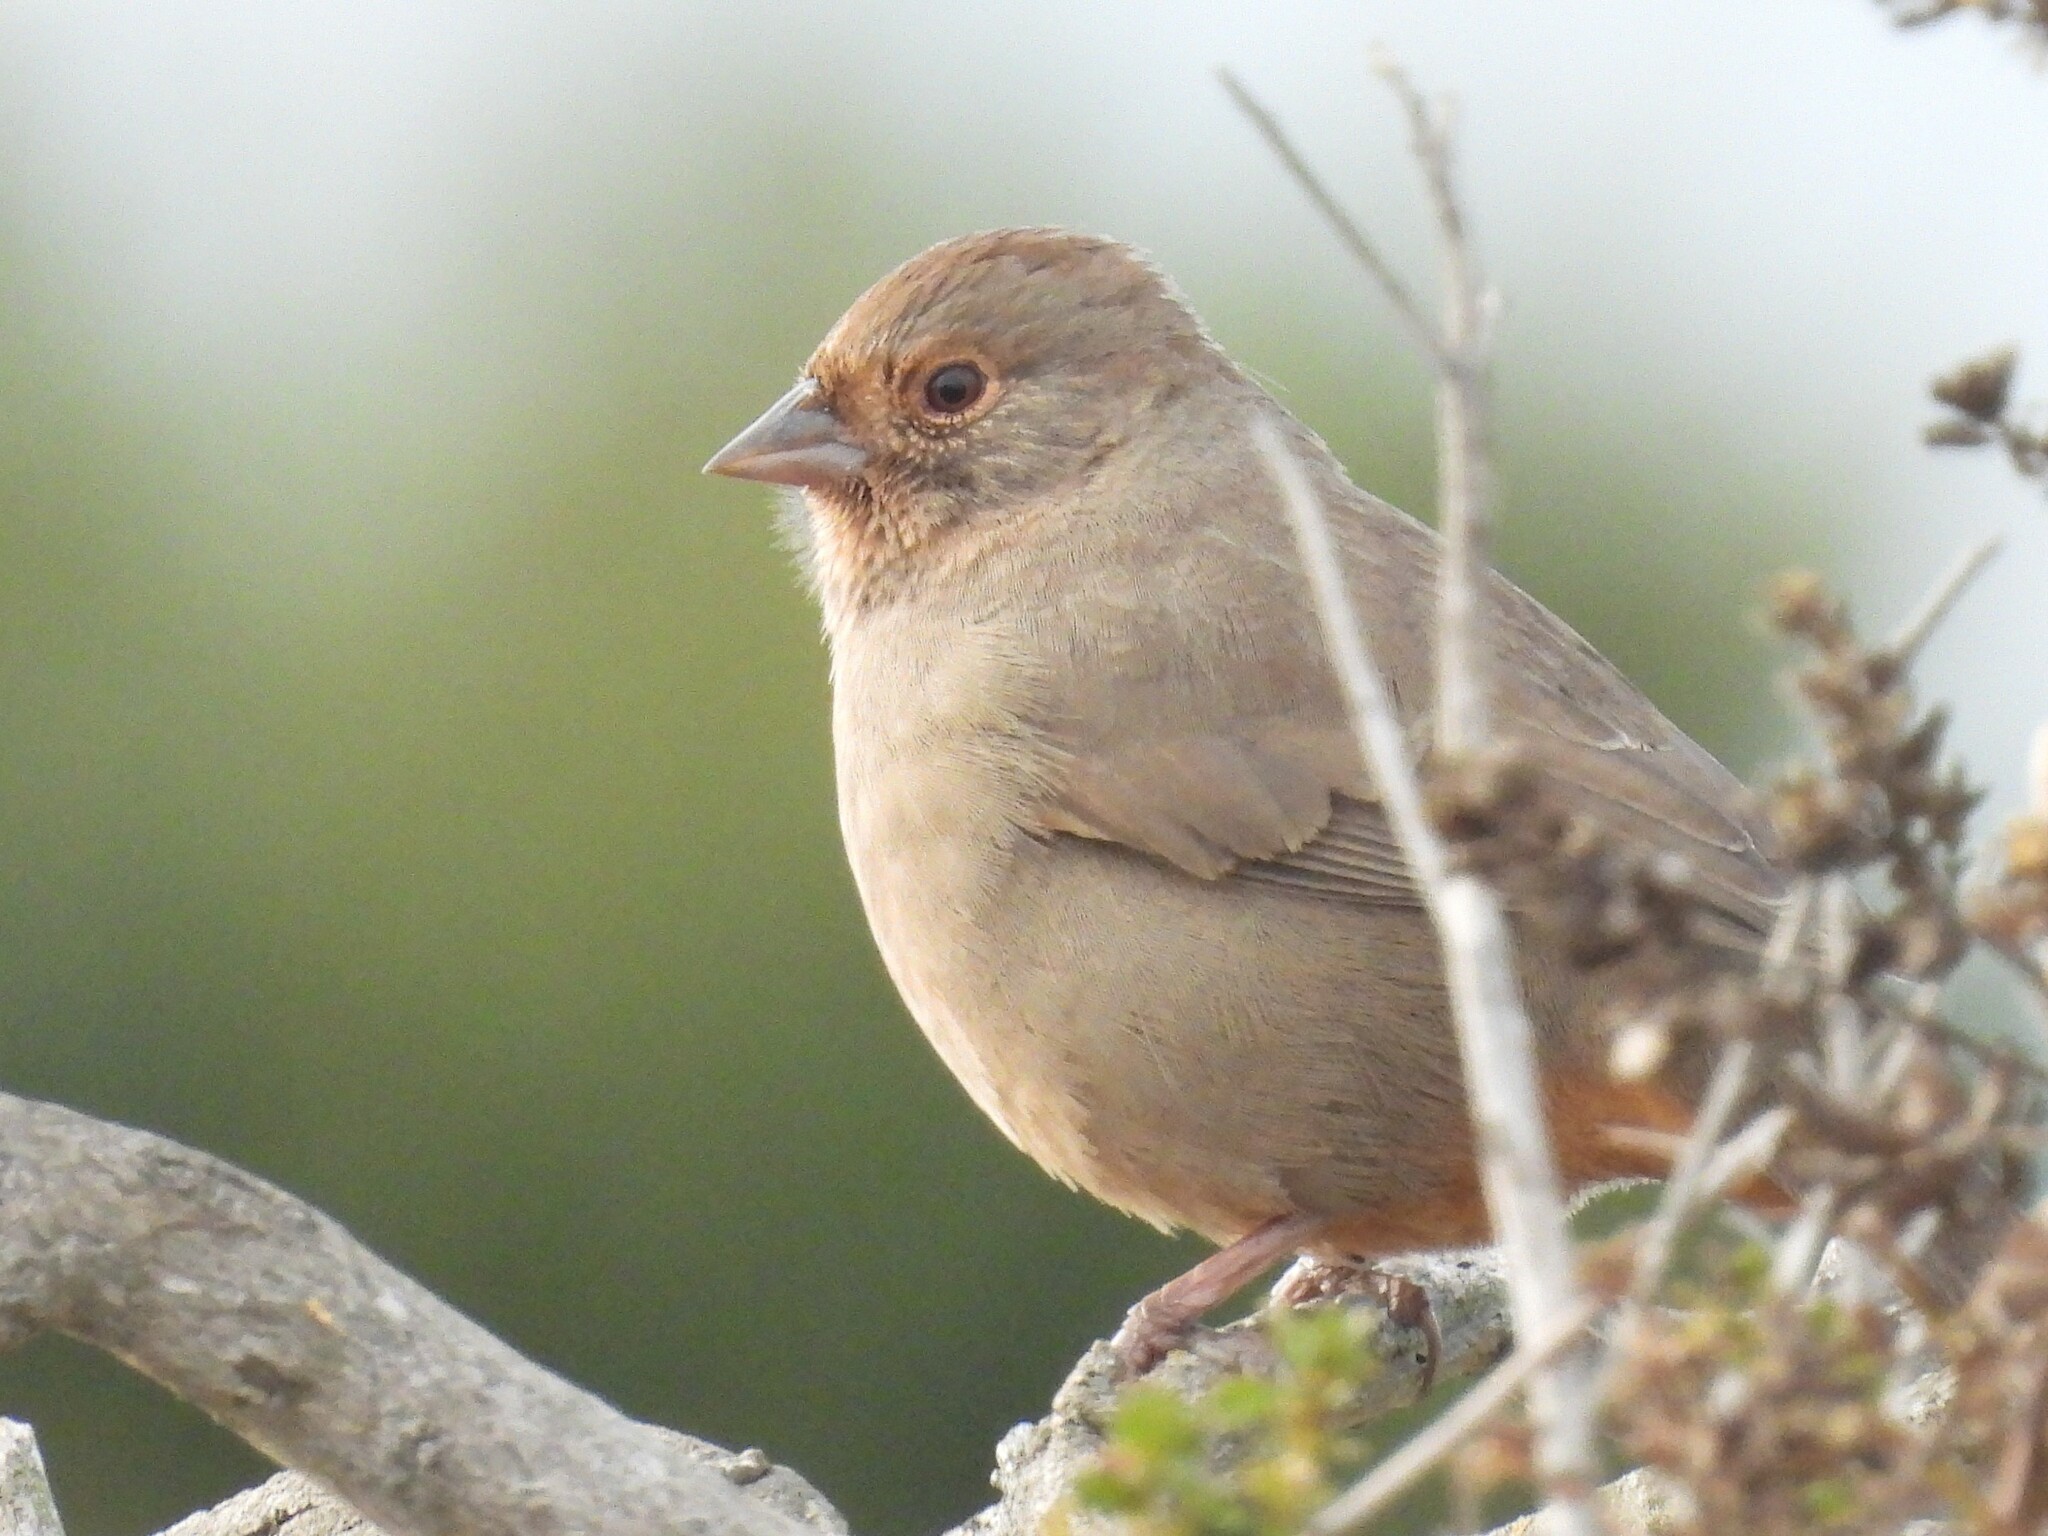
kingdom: Animalia
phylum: Chordata
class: Aves
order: Passeriformes
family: Passerellidae
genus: Melozone
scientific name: Melozone crissalis
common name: California towhee
